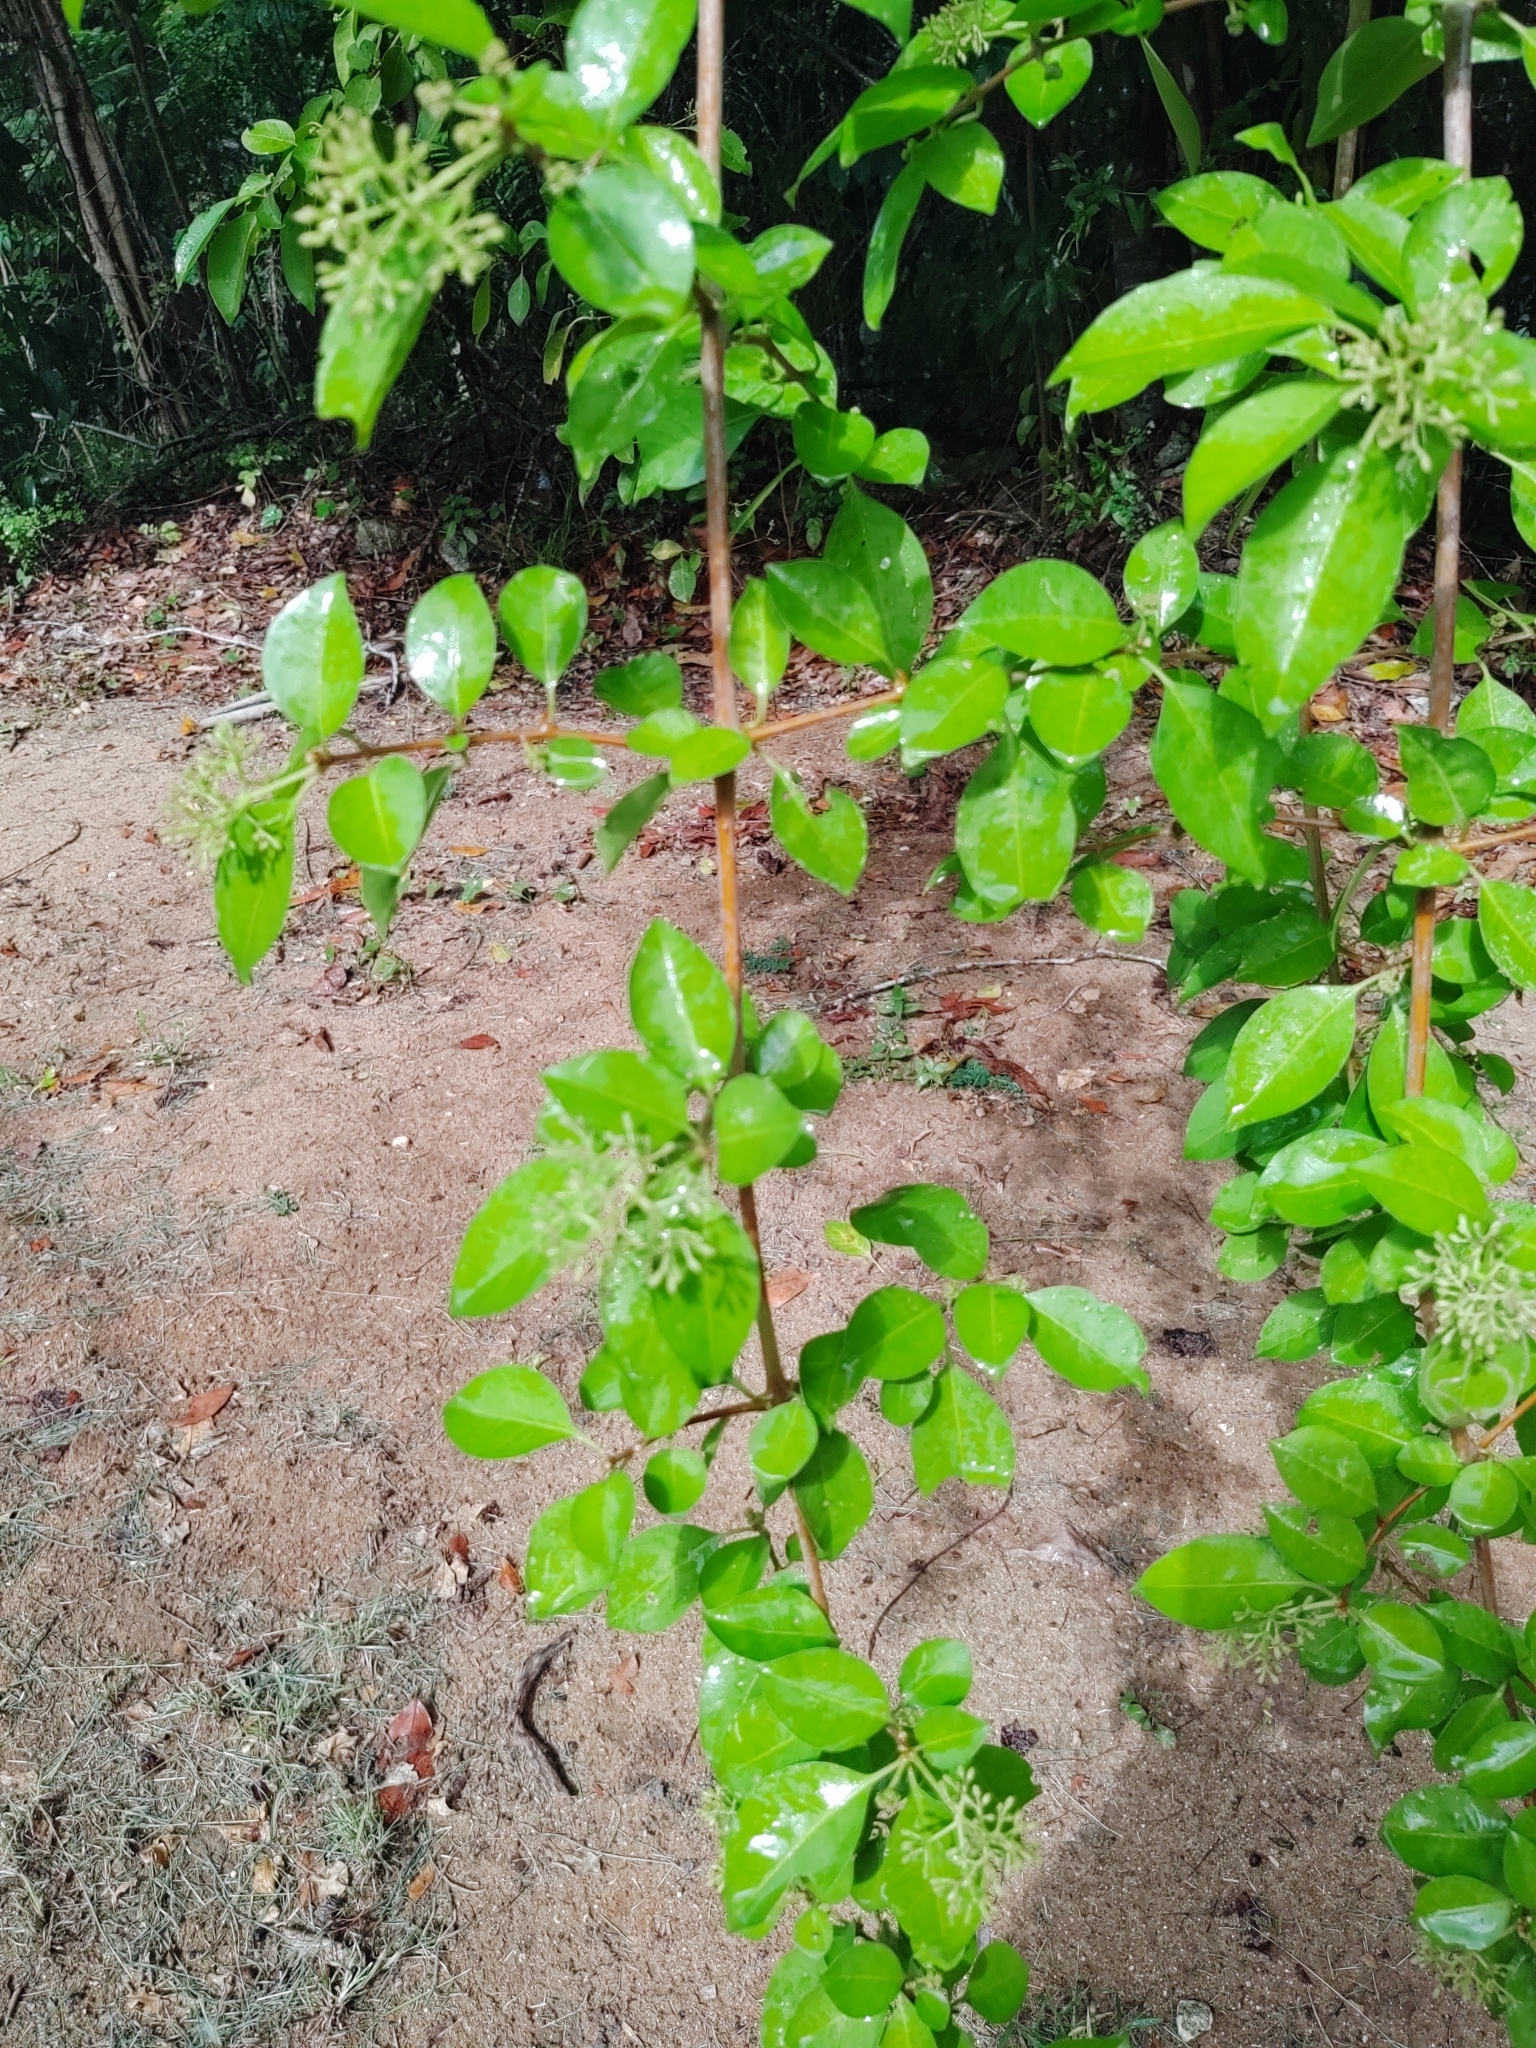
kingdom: Plantae
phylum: Tracheophyta
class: Magnoliopsida
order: Caryophyllales
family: Nyctaginaceae
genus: Pisonia
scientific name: Pisonia aculeata
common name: Cockspur vine
